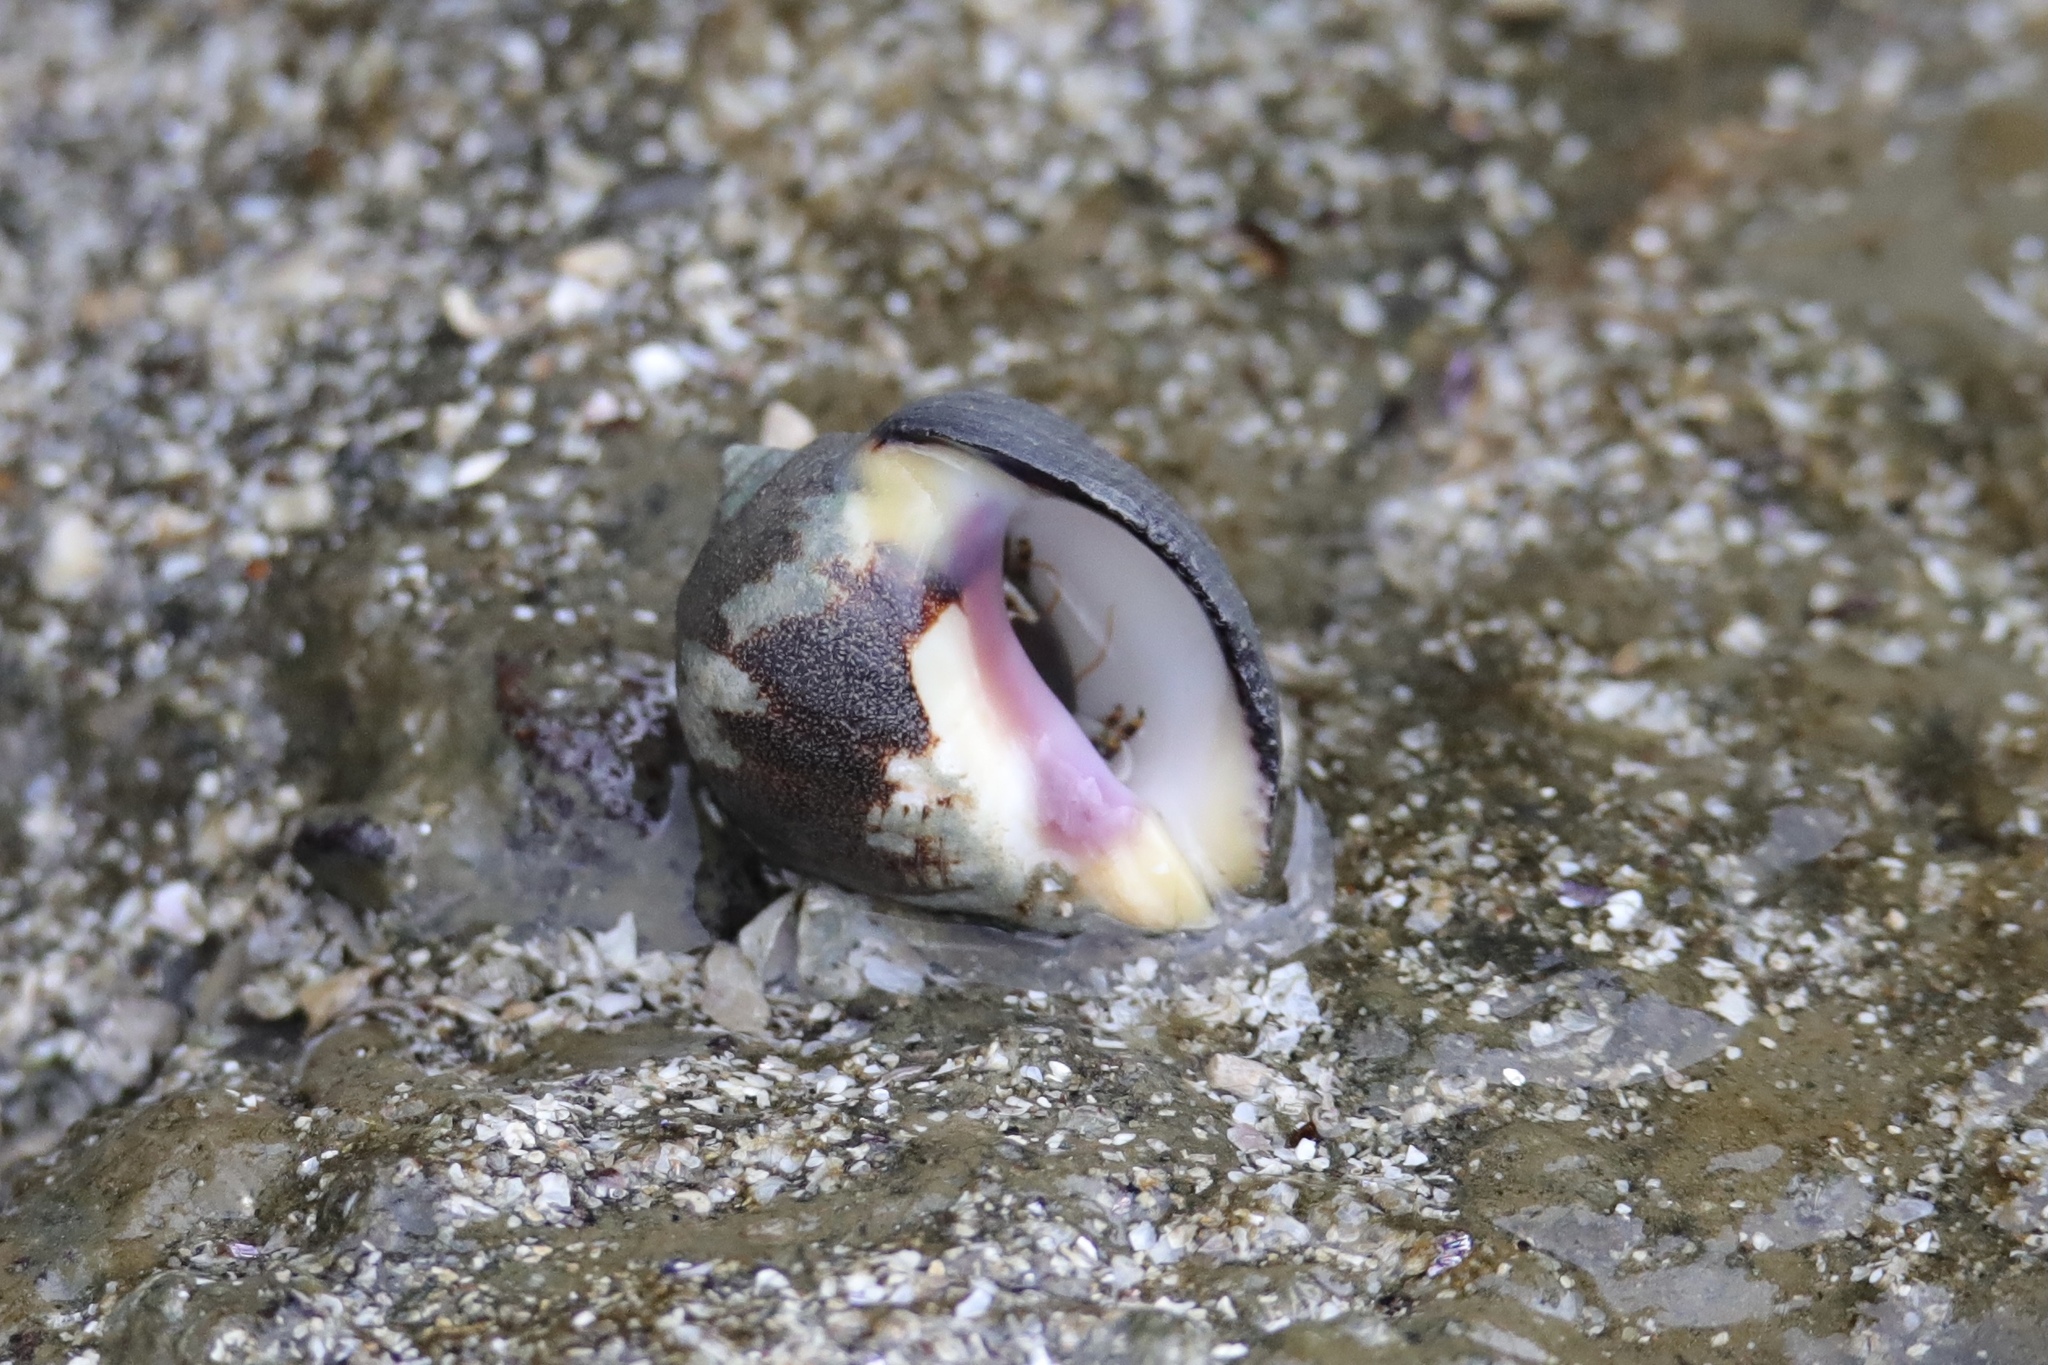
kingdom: Animalia
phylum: Arthropoda
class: Malacostraca
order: Decapoda
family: Diogenidae
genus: Calcinus
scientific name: Calcinus obscurus
